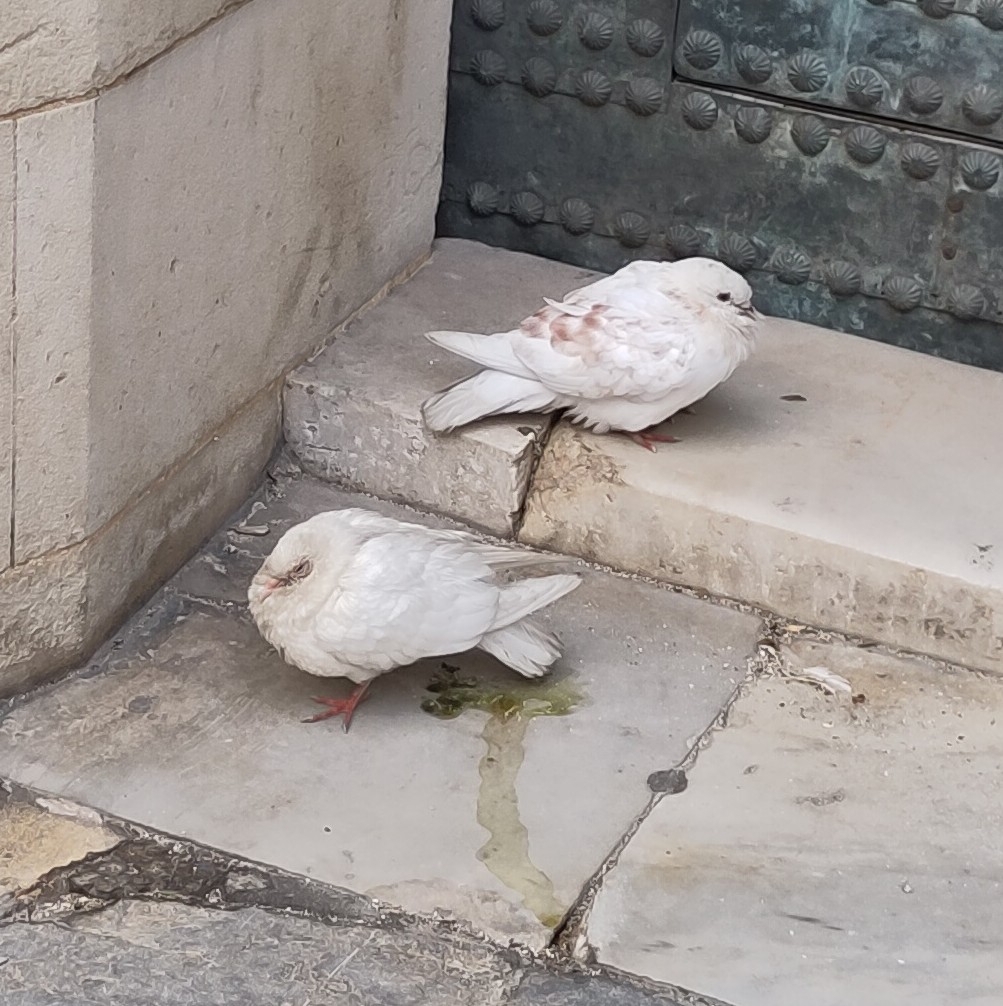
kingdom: Animalia
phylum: Chordata
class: Aves
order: Columbiformes
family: Columbidae
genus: Columba
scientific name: Columba livia
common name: Rock pigeon
